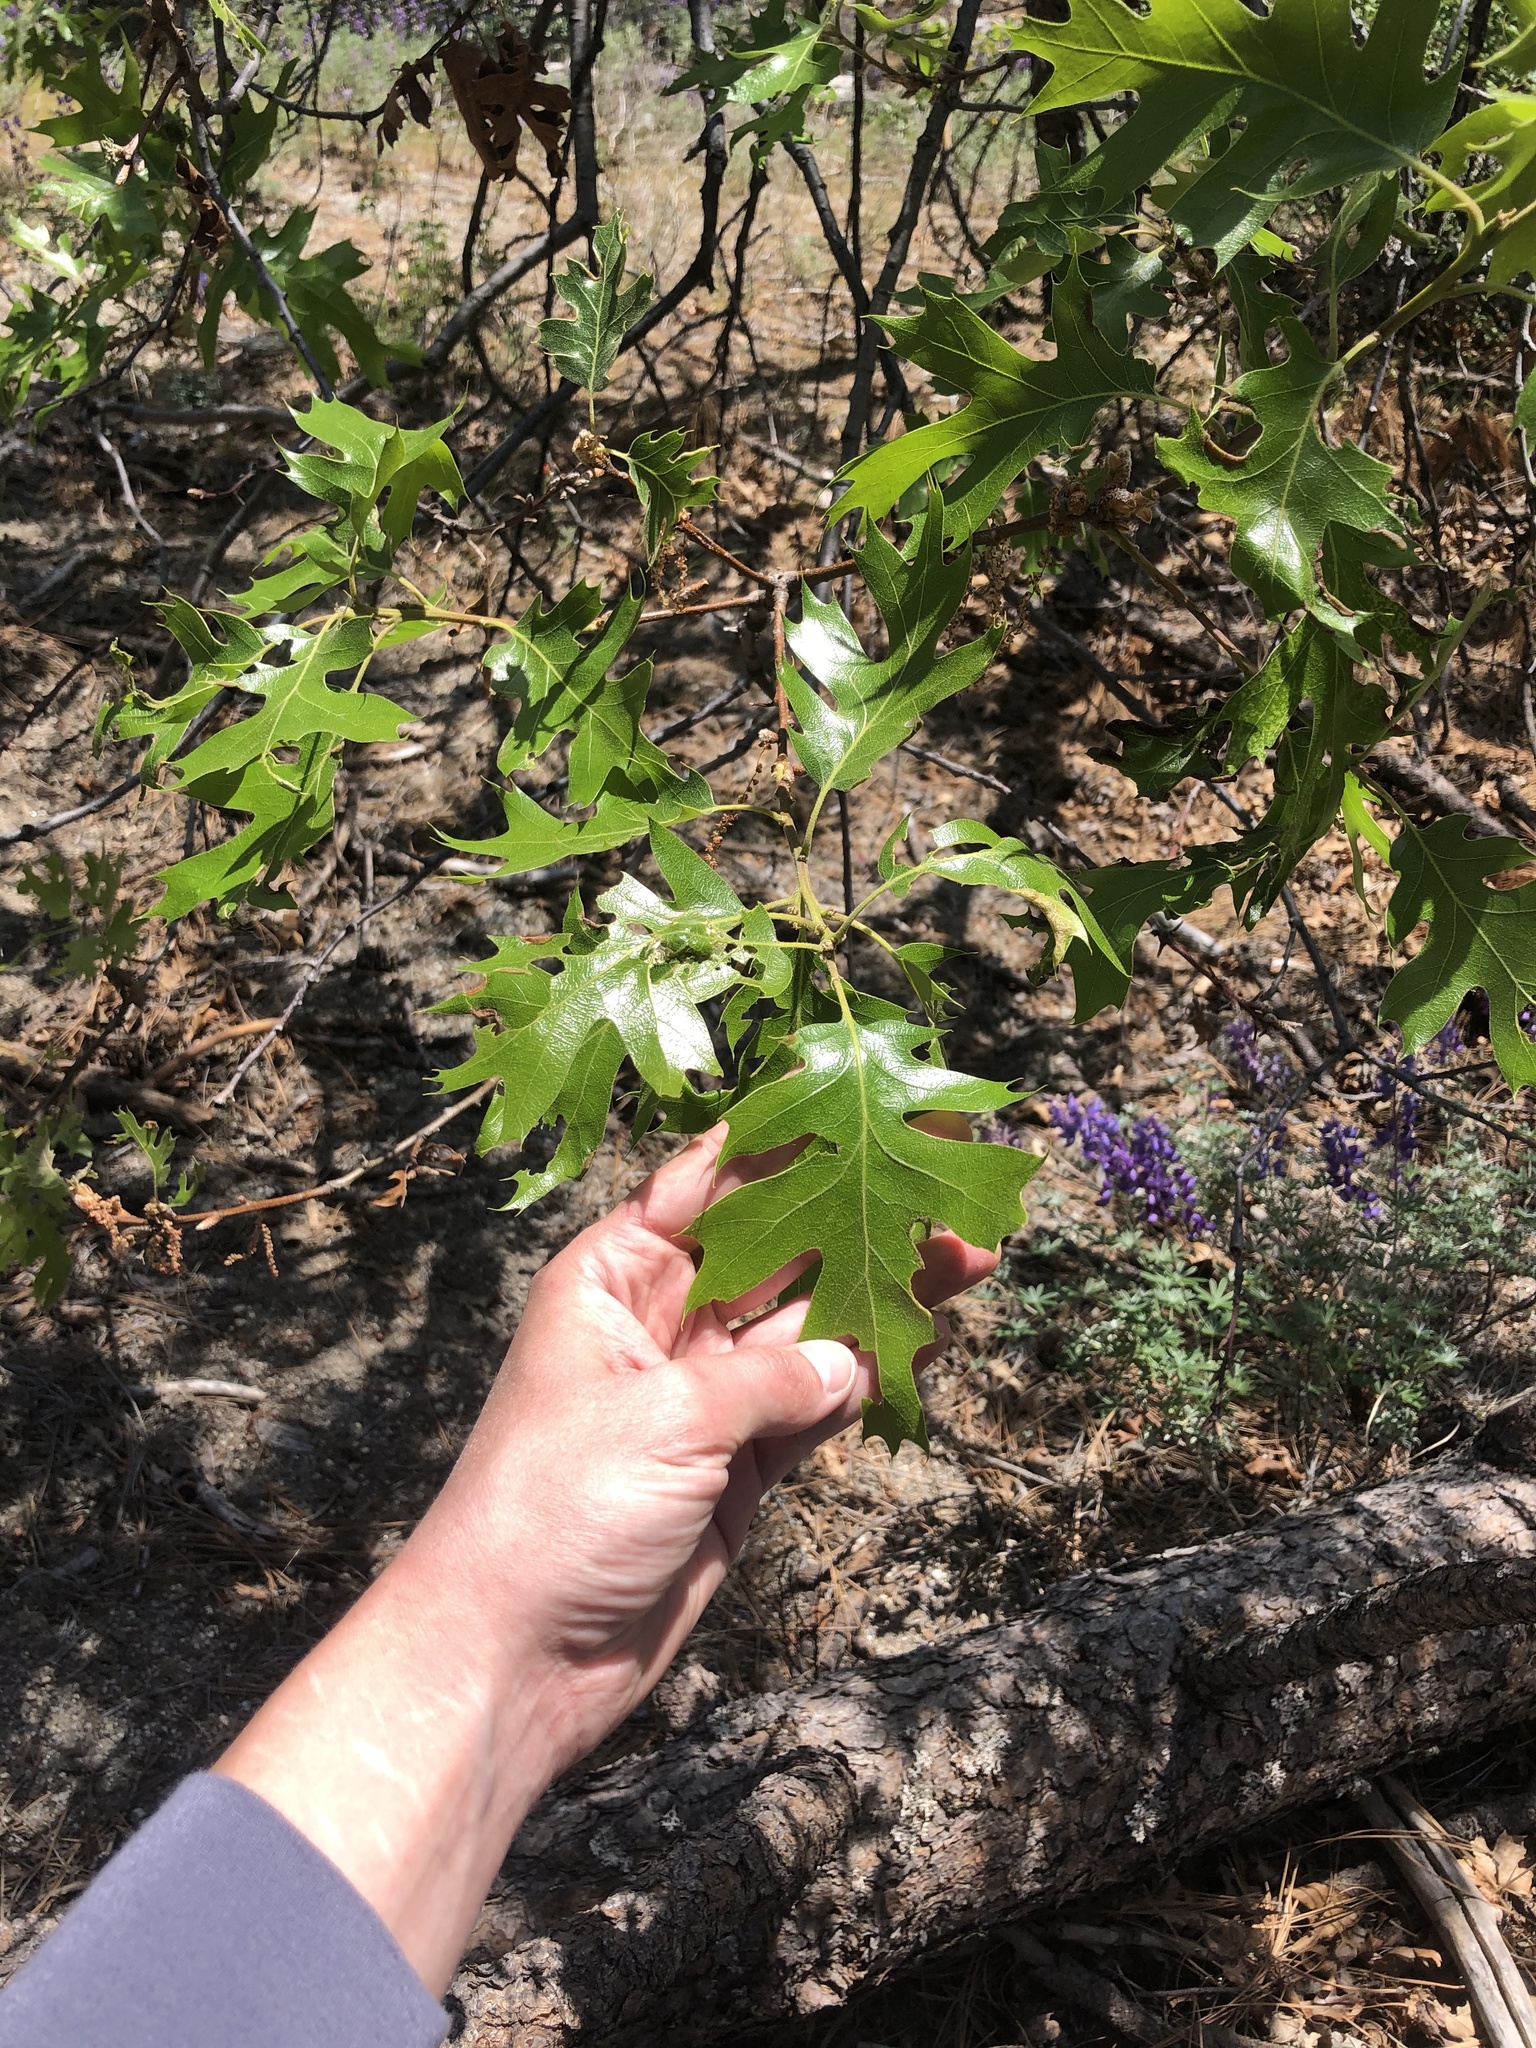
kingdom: Plantae
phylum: Tracheophyta
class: Magnoliopsida
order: Fagales
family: Fagaceae
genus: Quercus
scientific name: Quercus kelloggii
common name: California black oak
